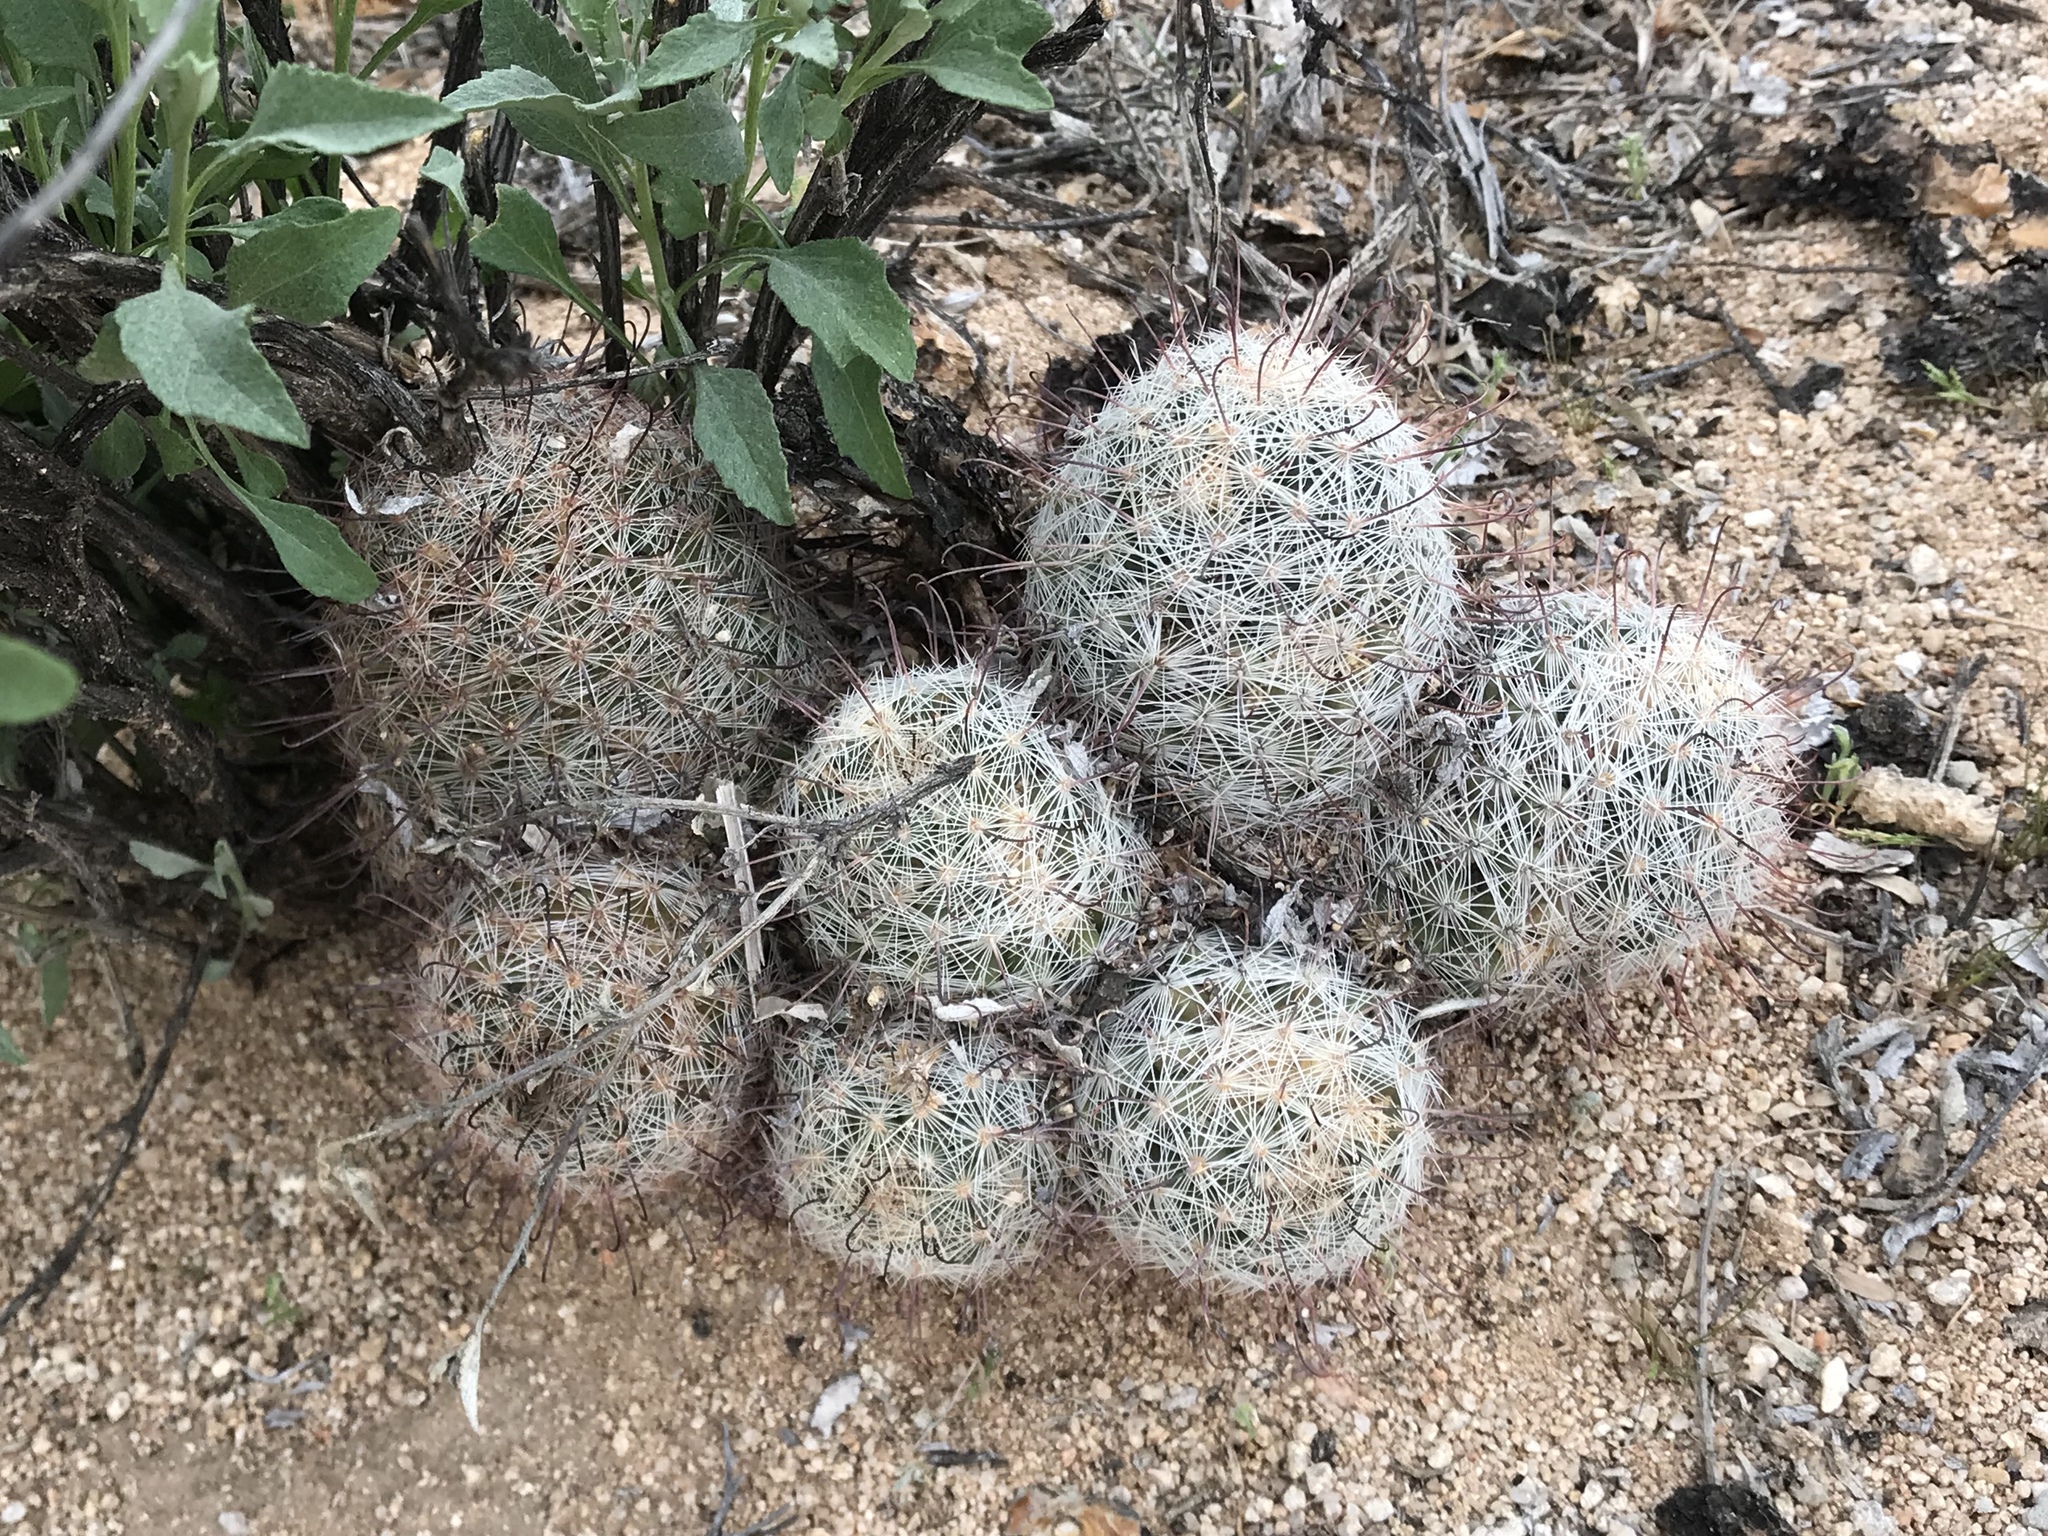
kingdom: Plantae
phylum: Tracheophyta
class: Magnoliopsida
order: Caryophyllales
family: Cactaceae
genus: Cochemiea
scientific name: Cochemiea grahamii
